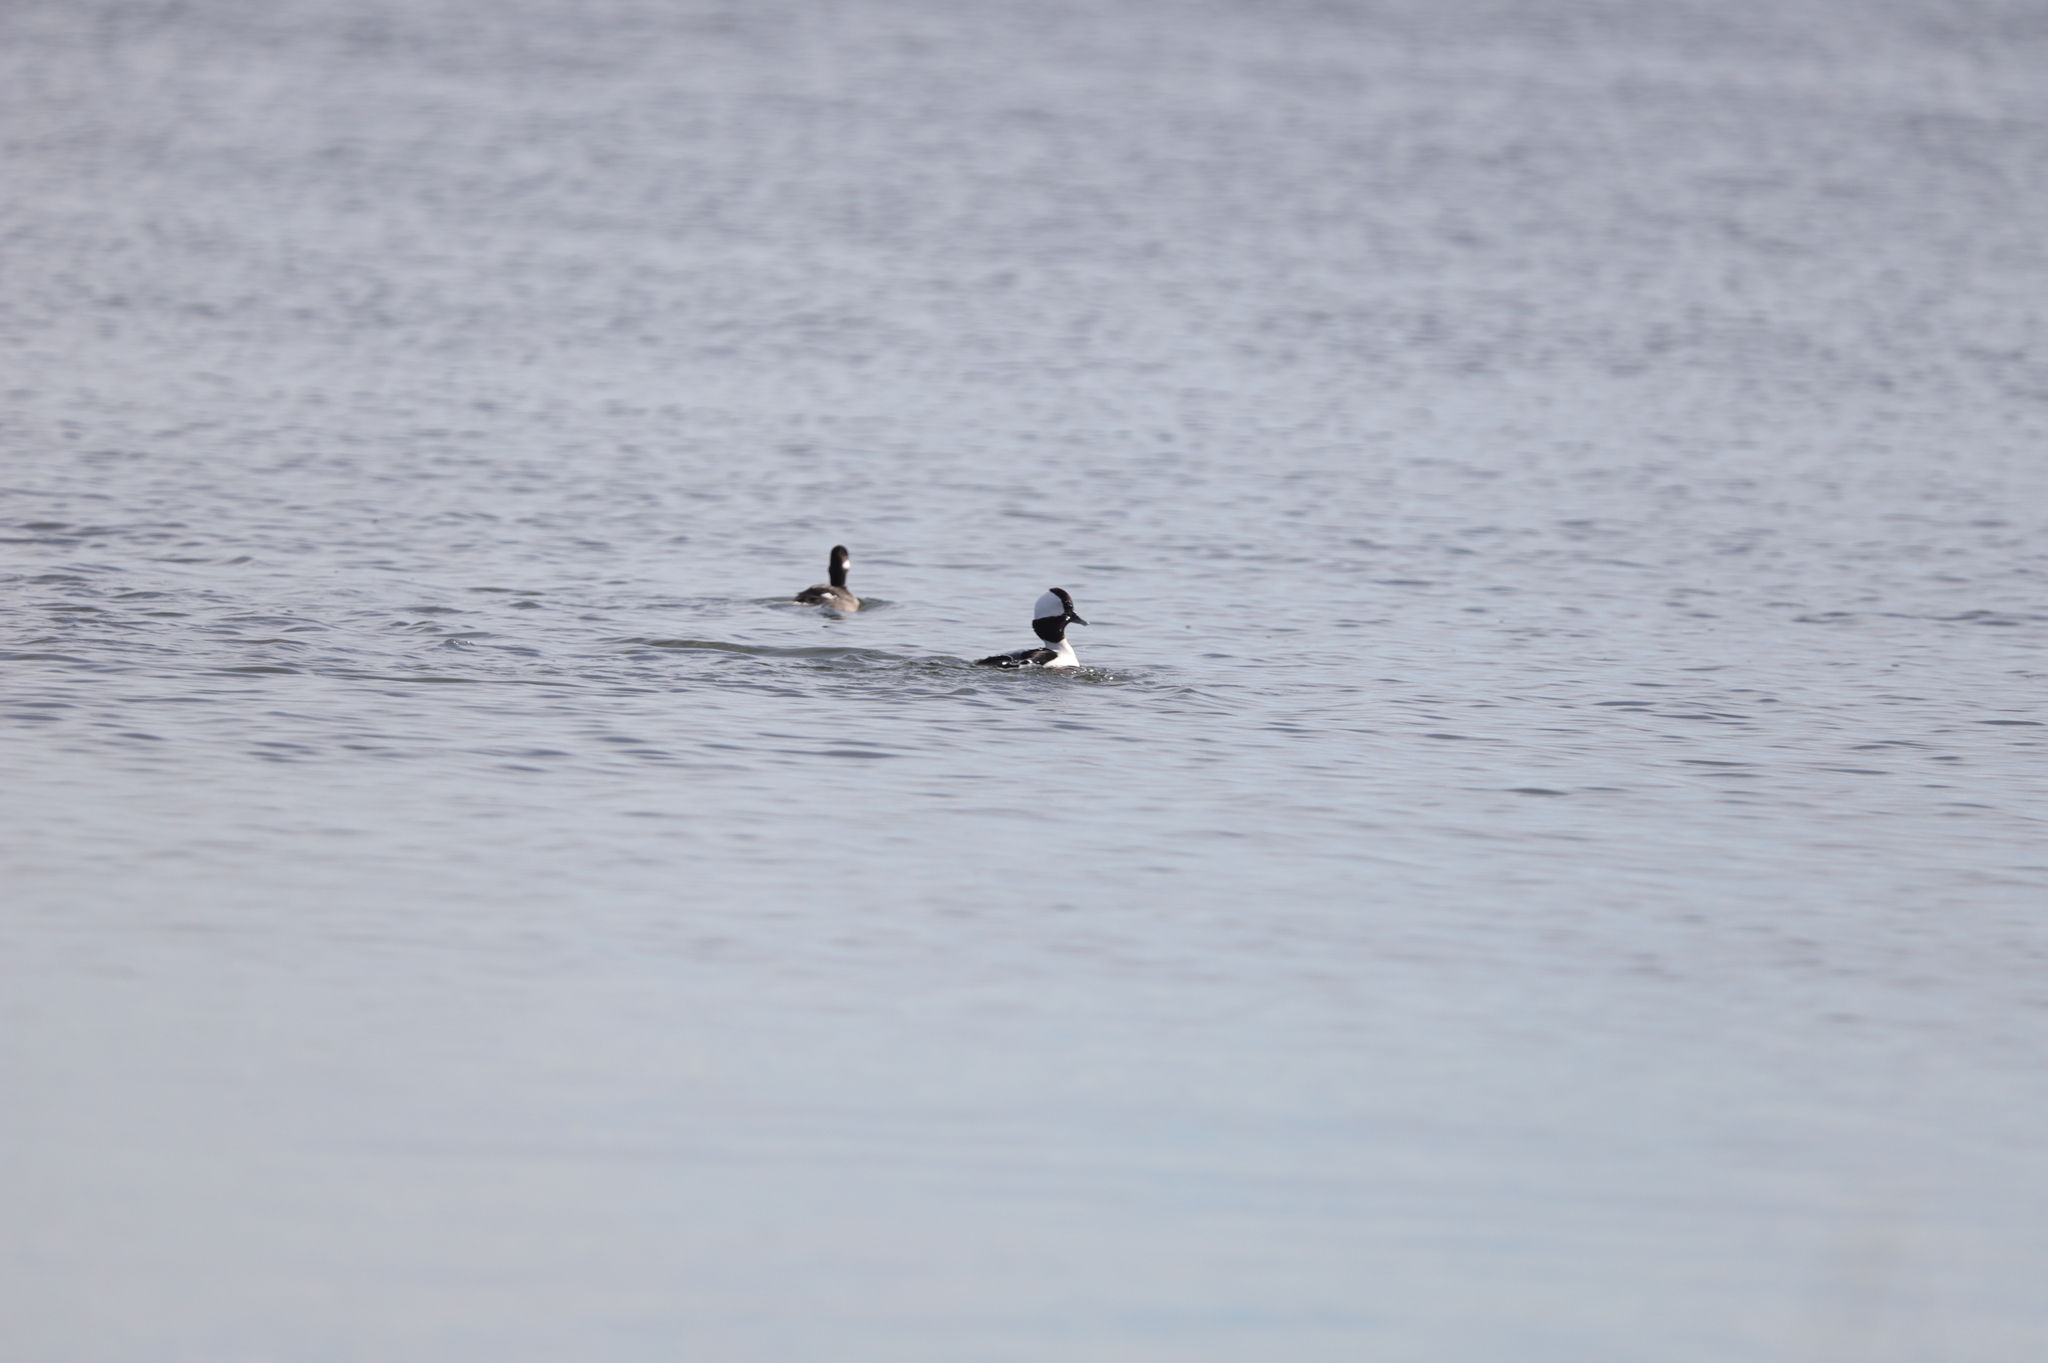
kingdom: Animalia
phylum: Chordata
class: Aves
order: Anseriformes
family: Anatidae
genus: Bucephala
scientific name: Bucephala albeola
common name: Bufflehead
